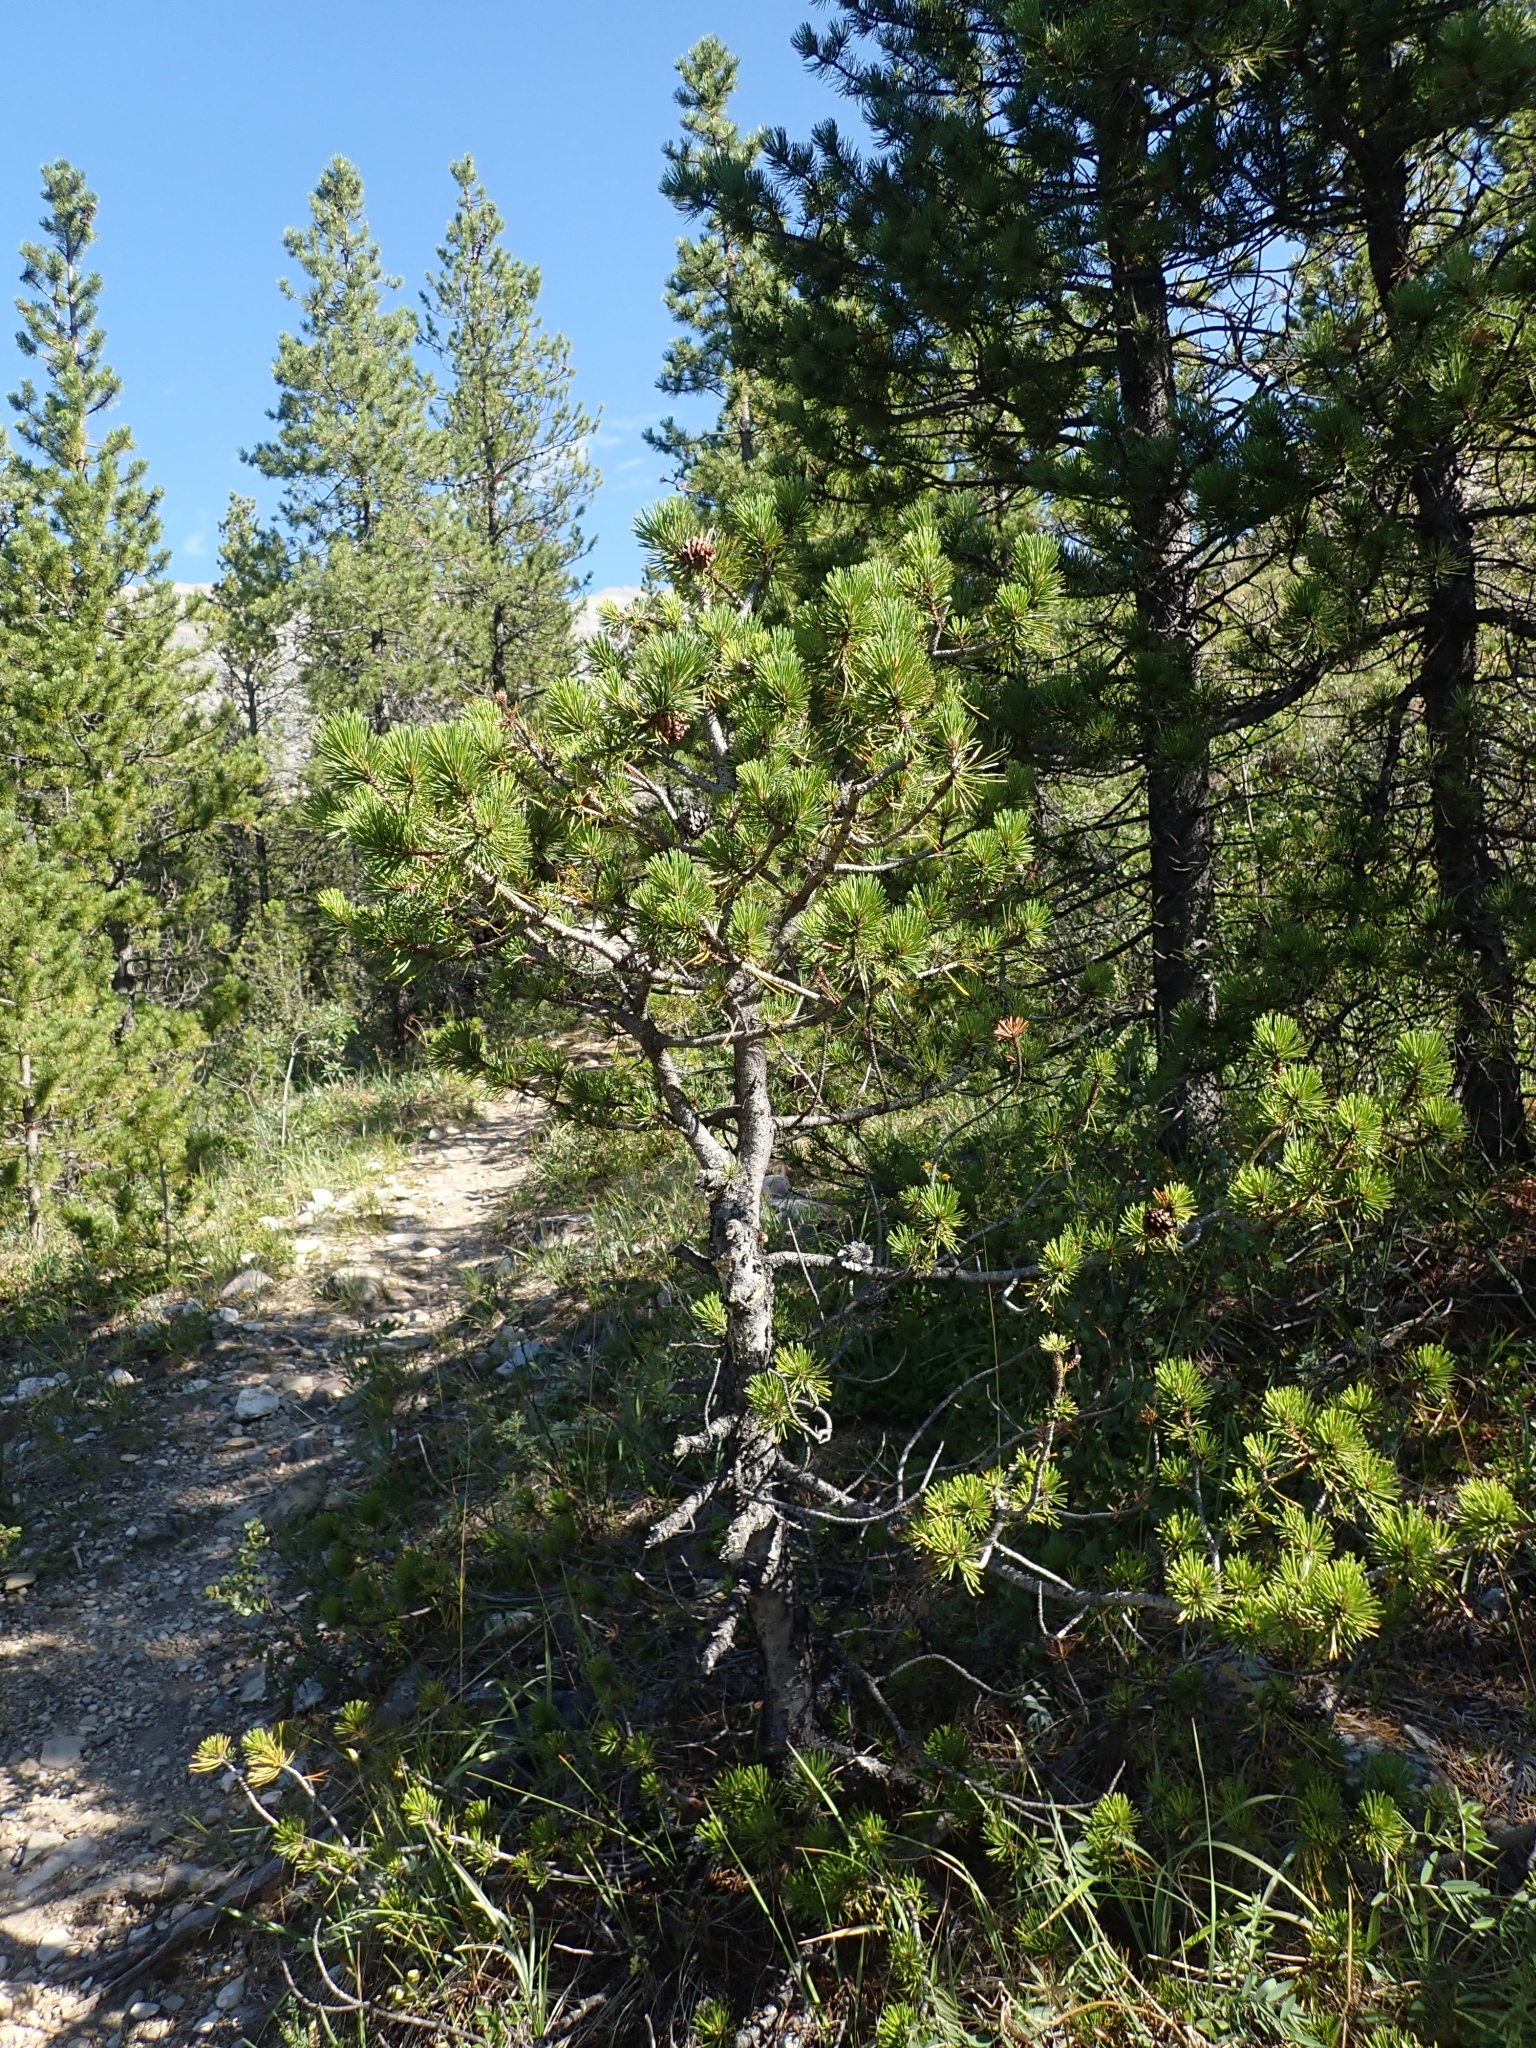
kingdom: Plantae
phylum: Tracheophyta
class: Pinopsida
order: Pinales
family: Pinaceae
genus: Pinus
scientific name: Pinus contorta
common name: Lodgepole pine
